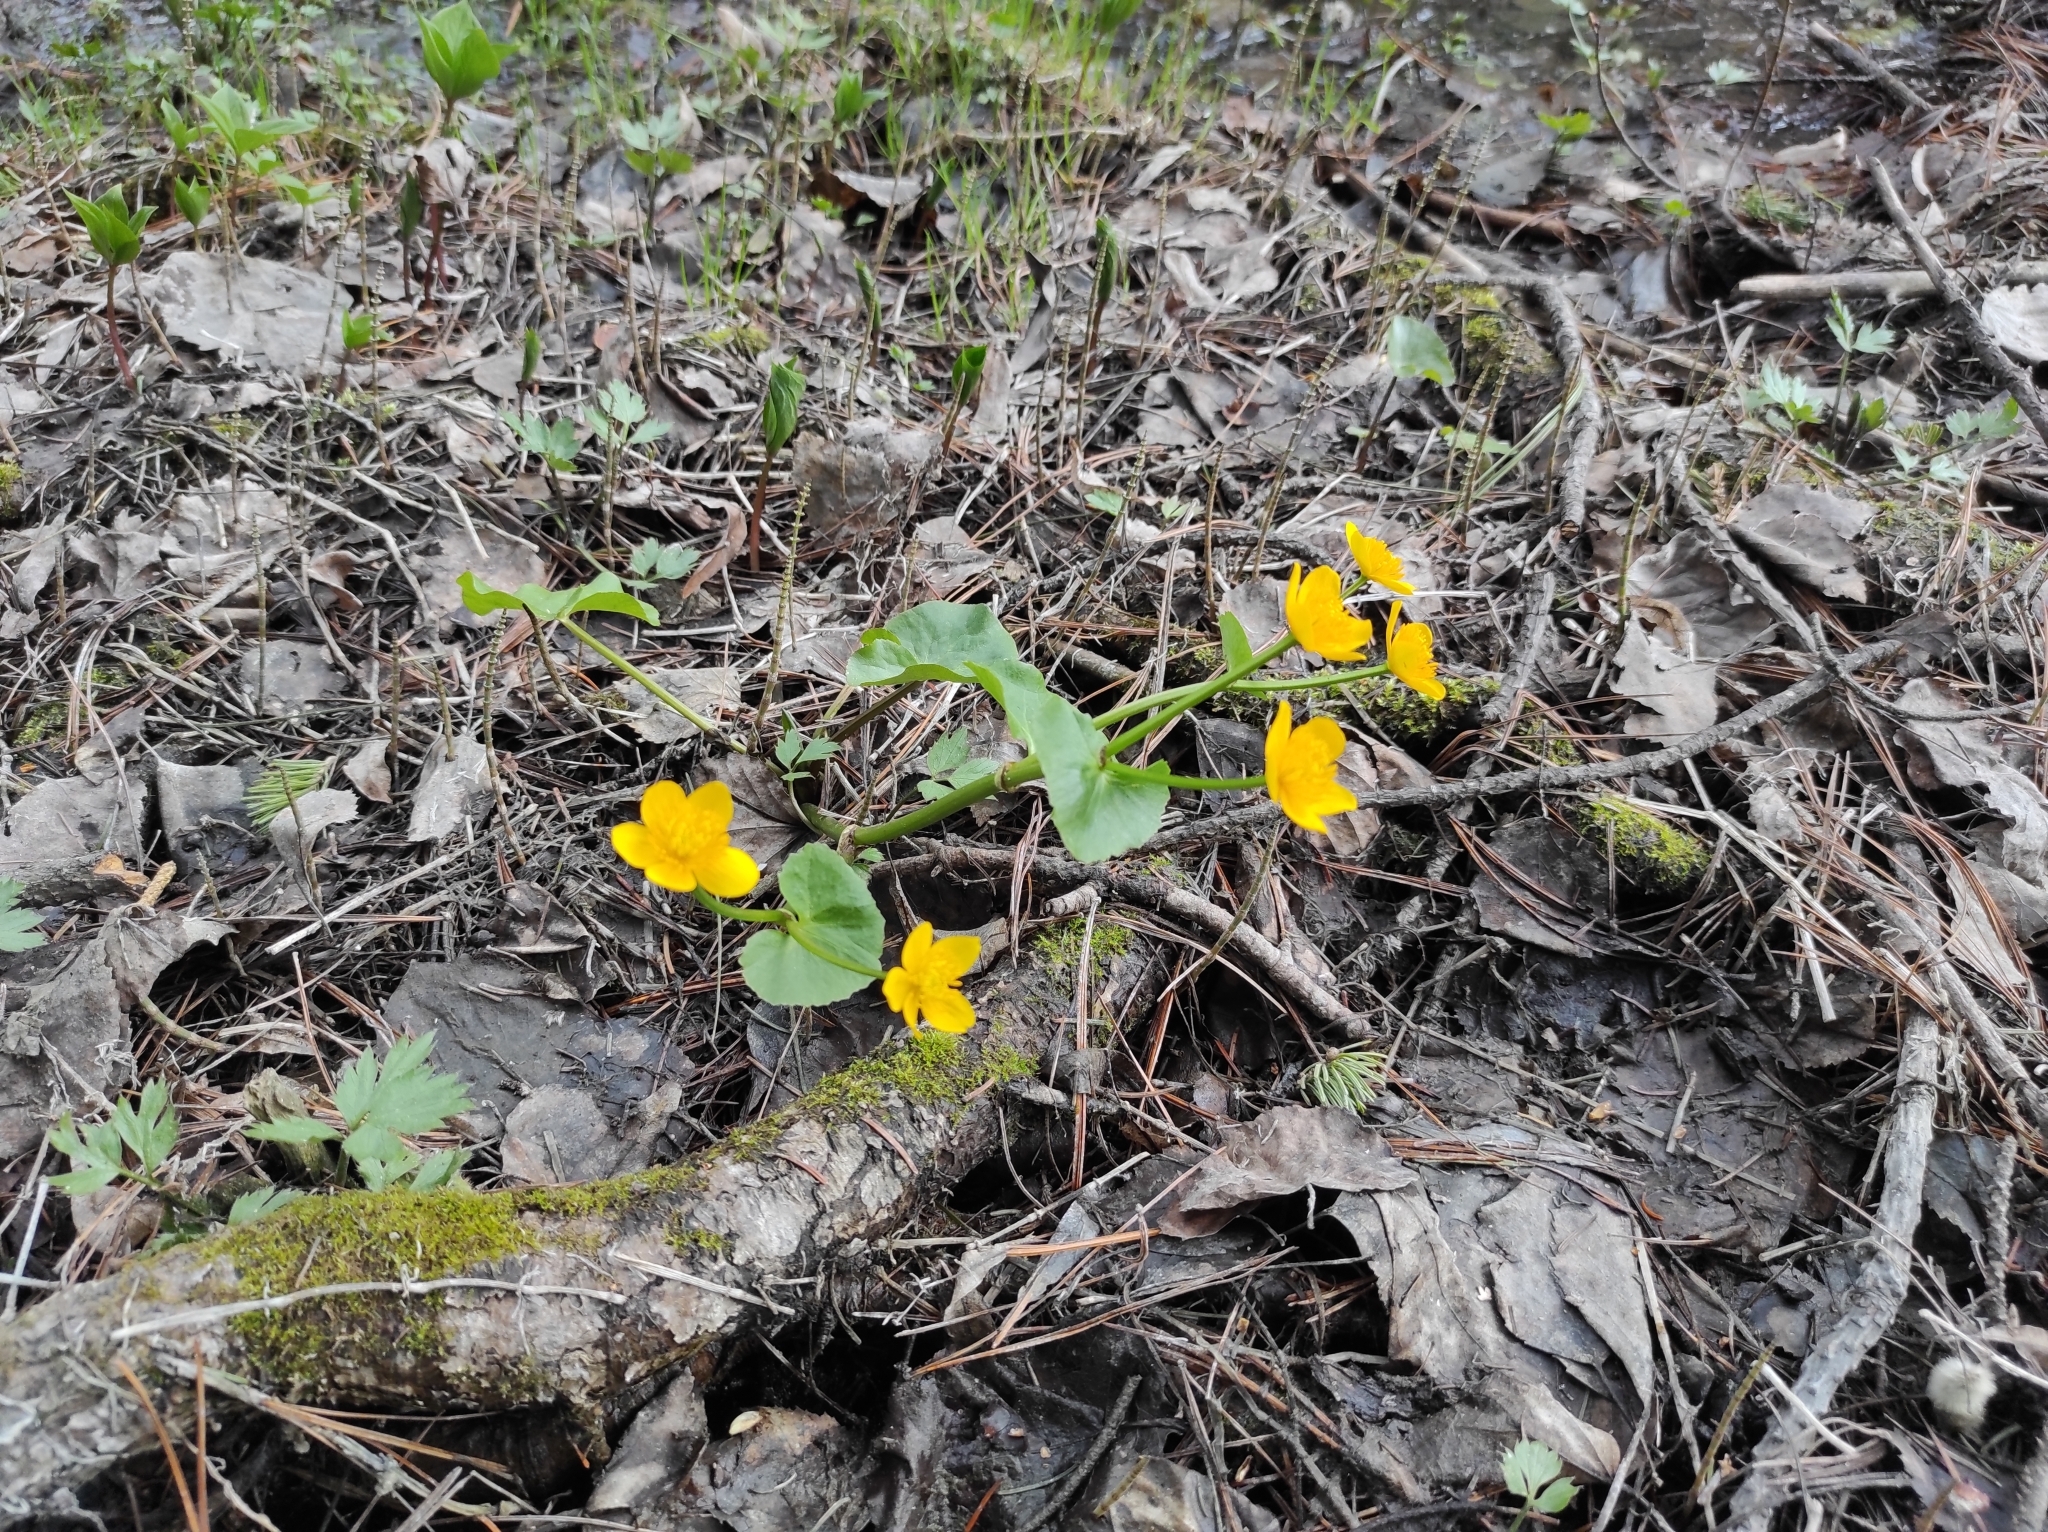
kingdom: Plantae
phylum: Tracheophyta
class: Magnoliopsida
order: Ranunculales
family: Ranunculaceae
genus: Caltha
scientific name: Caltha palustris
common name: Marsh marigold
